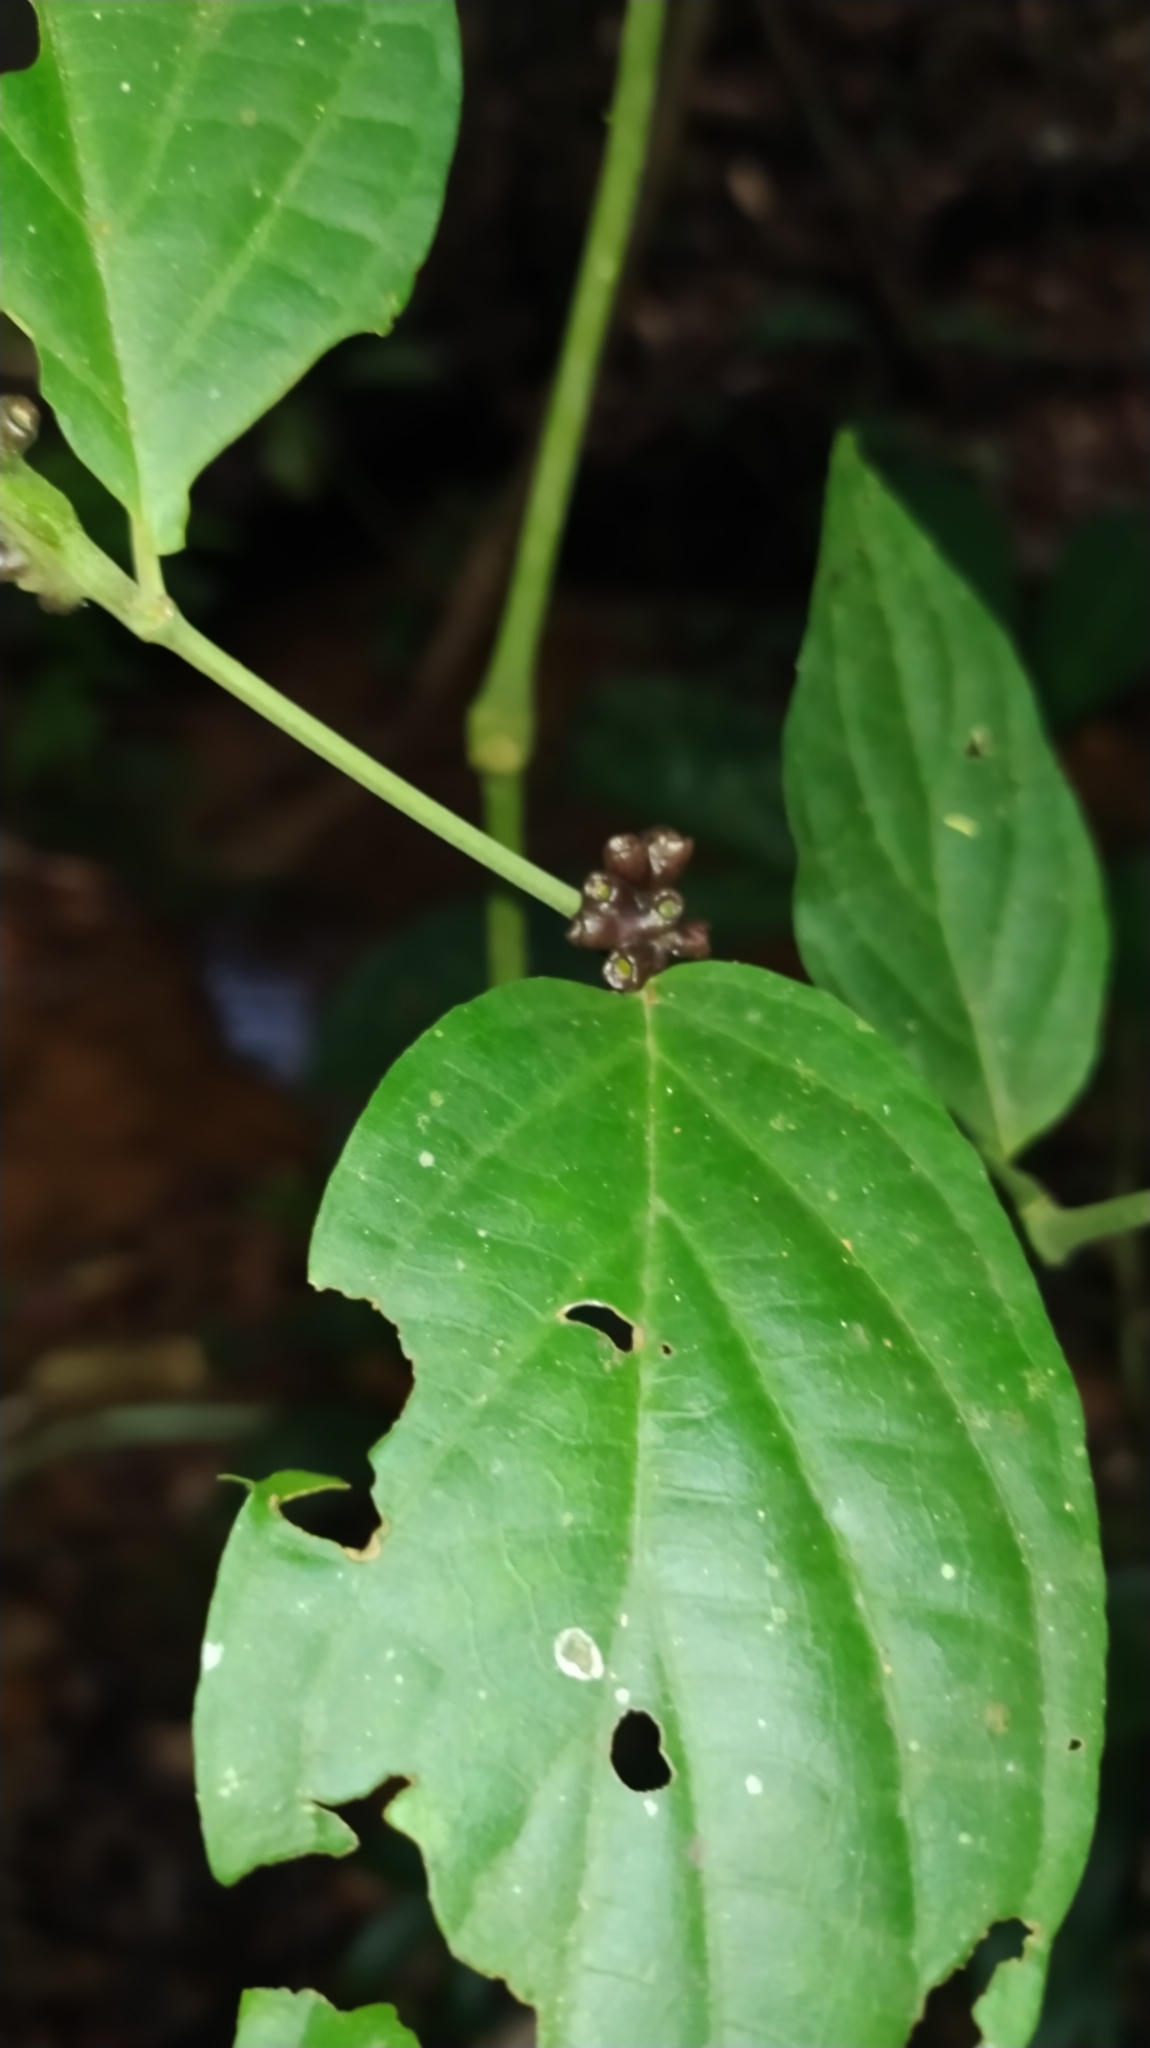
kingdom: Plantae
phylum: Tracheophyta
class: Magnoliopsida
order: Piperales
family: Piperaceae
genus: Piper
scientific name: Piper
